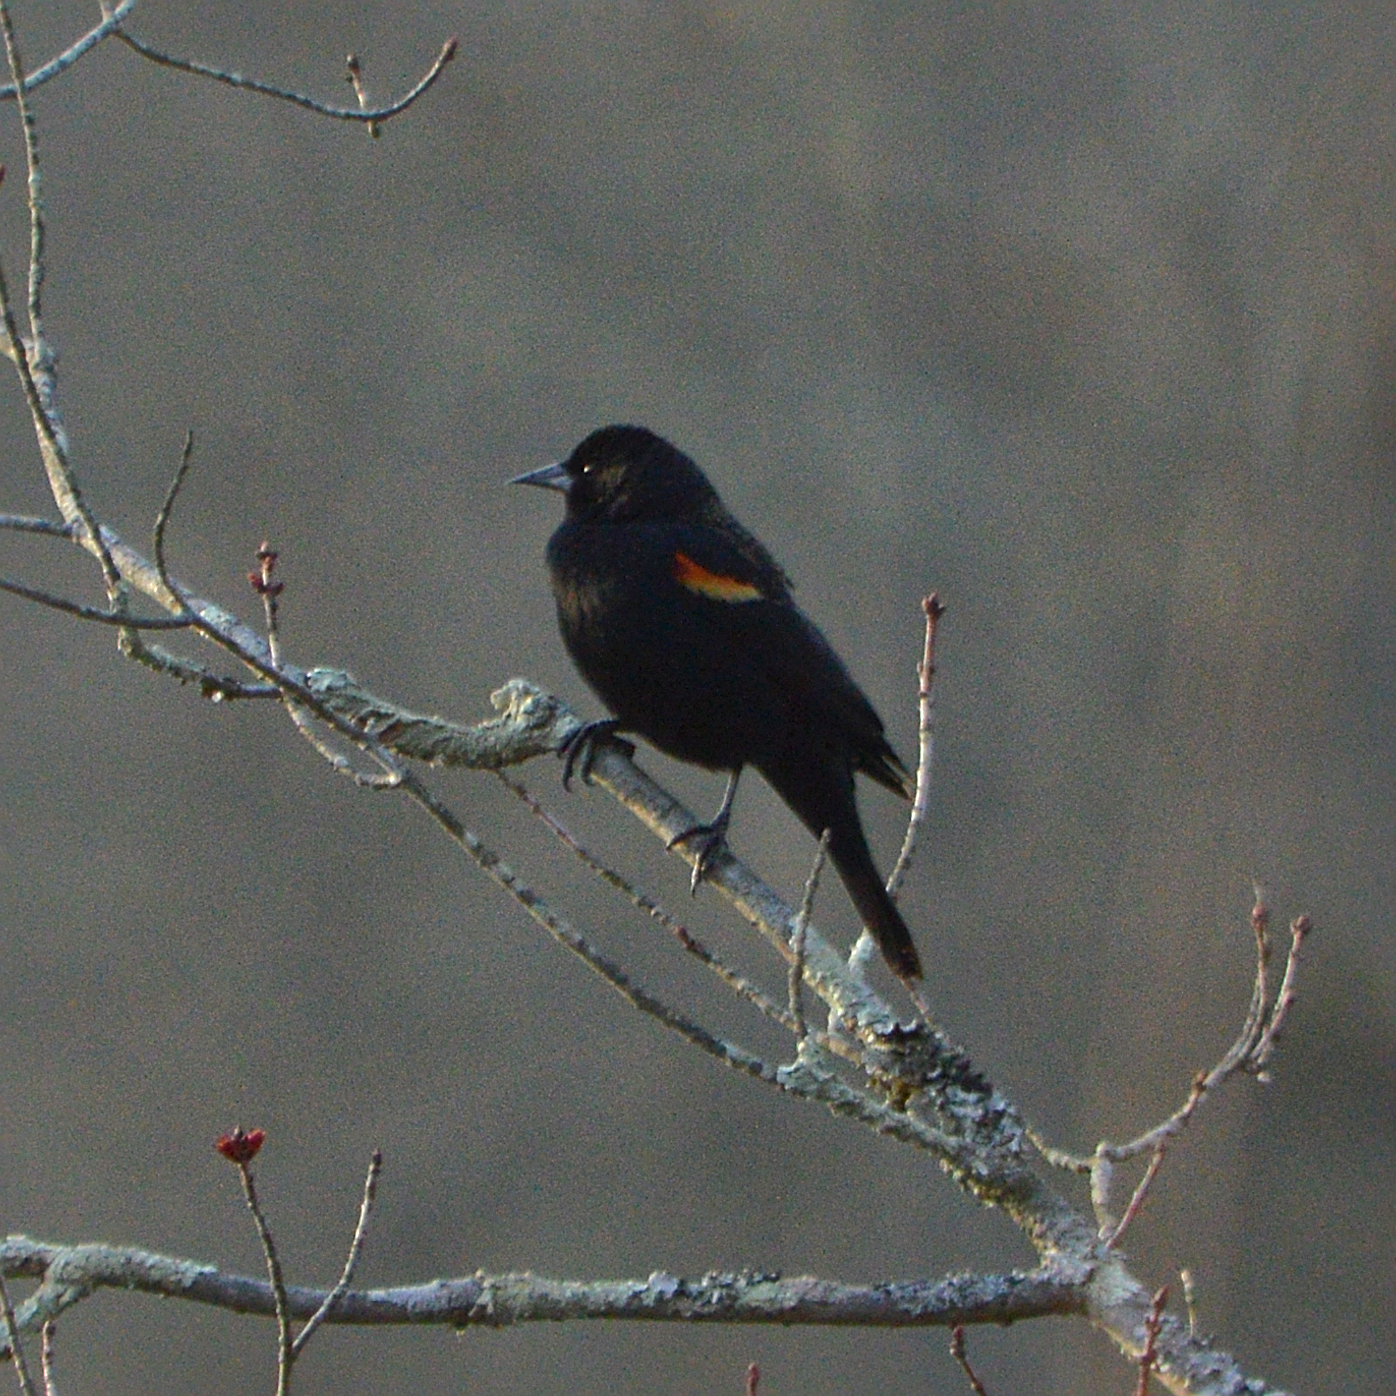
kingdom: Animalia
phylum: Chordata
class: Aves
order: Passeriformes
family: Icteridae
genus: Agelaius
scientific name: Agelaius phoeniceus
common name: Red-winged blackbird
